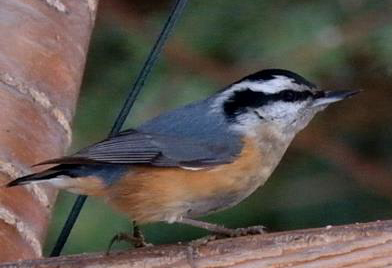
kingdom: Animalia
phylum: Chordata
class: Aves
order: Passeriformes
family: Sittidae
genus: Sitta
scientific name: Sitta canadensis
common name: Red-breasted nuthatch
